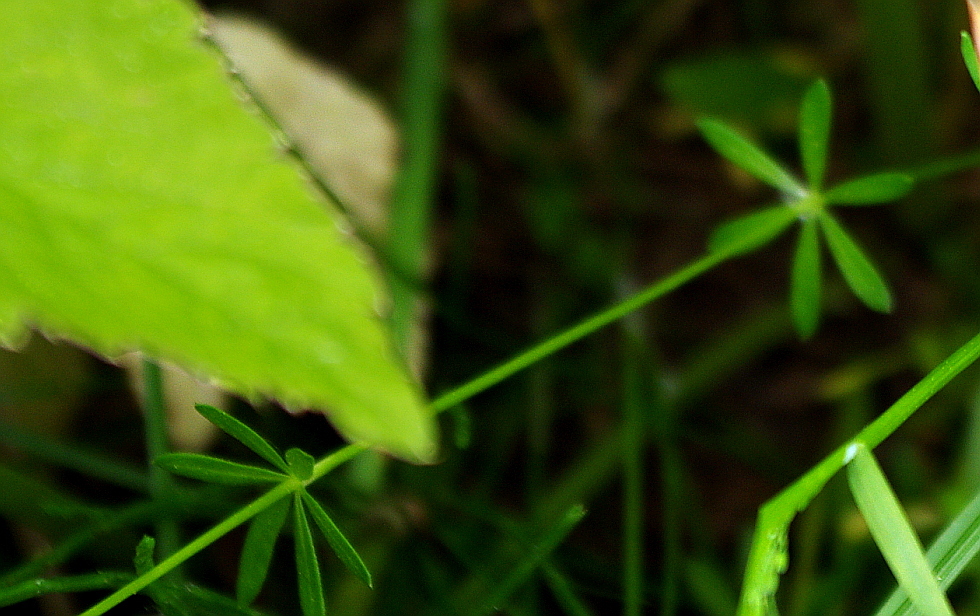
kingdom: Plantae
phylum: Tracheophyta
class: Magnoliopsida
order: Gentianales
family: Rubiaceae
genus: Galium
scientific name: Galium mollugo
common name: Hedge bedstraw
